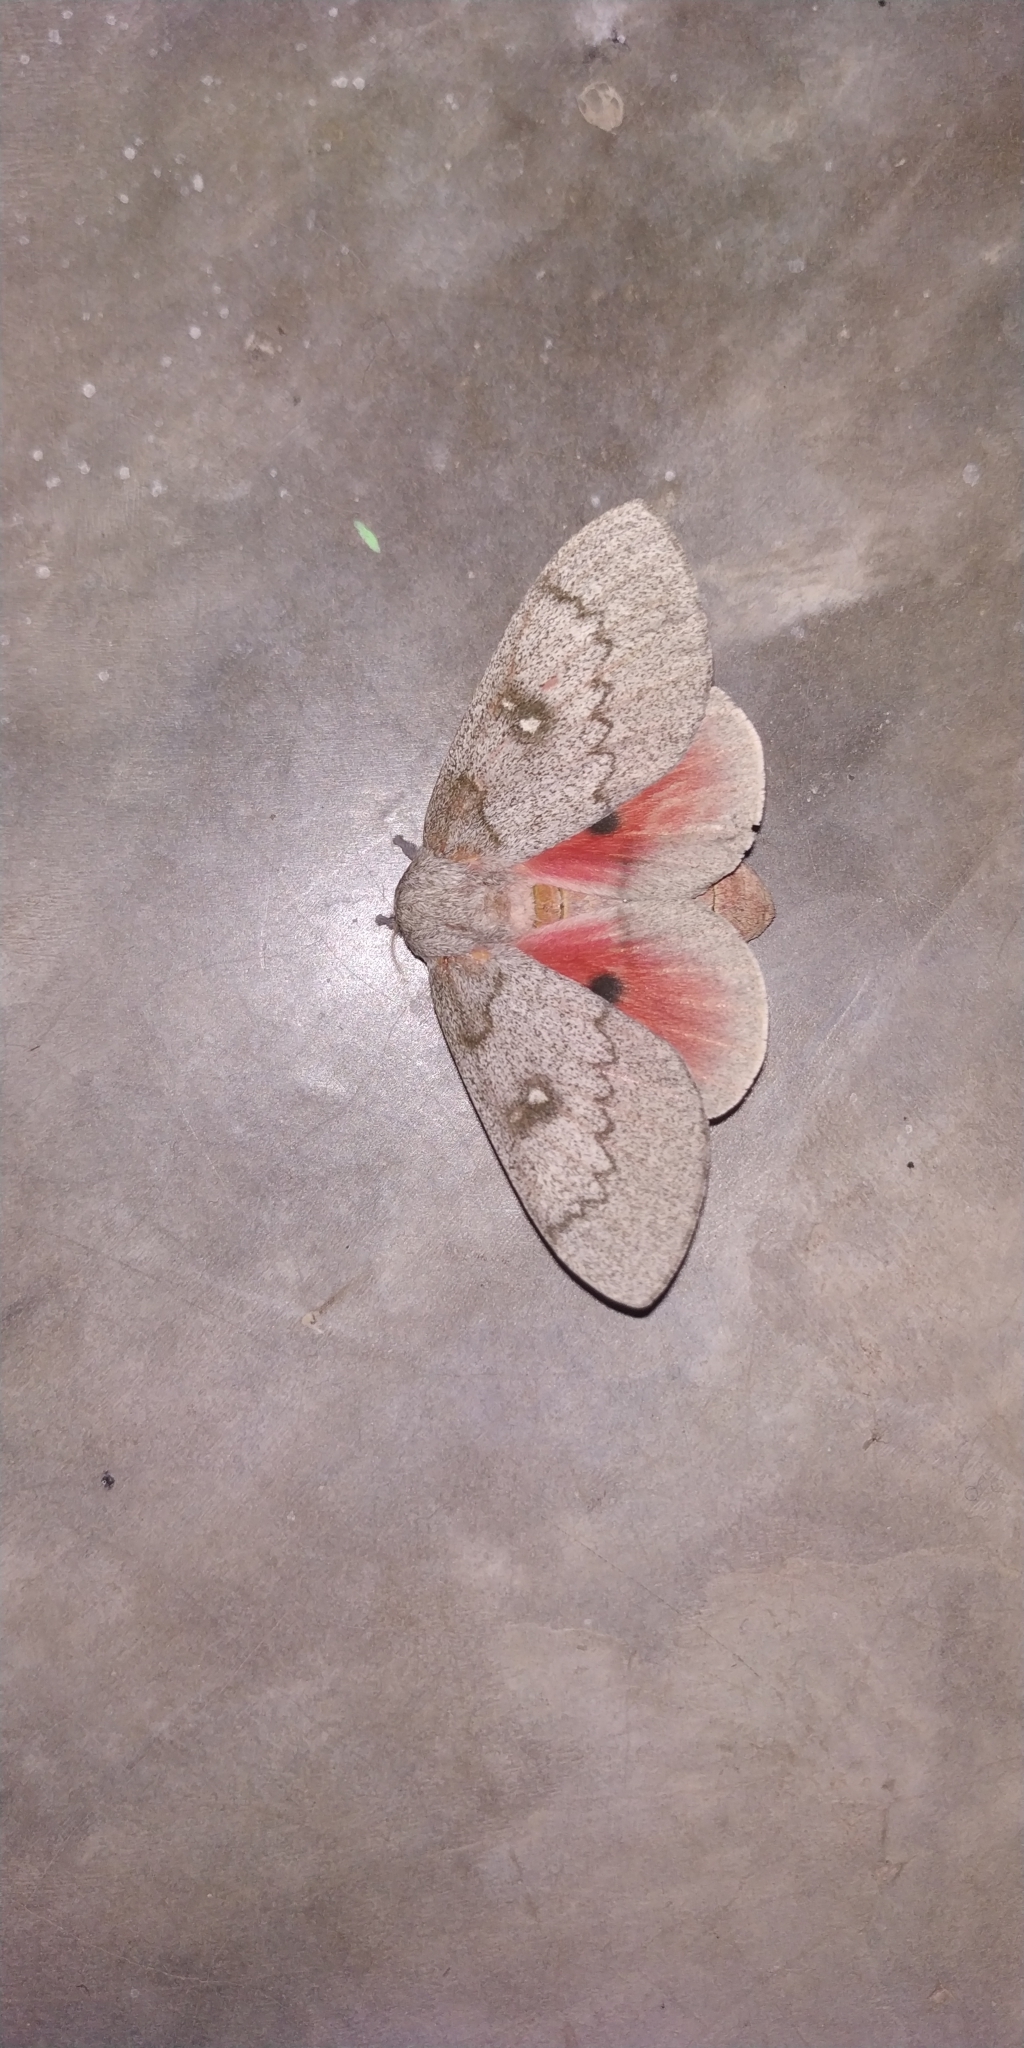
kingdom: Animalia
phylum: Arthropoda
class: Insecta
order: Lepidoptera
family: Saturniidae
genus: Syssphinx
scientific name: Syssphinx hubbardi
